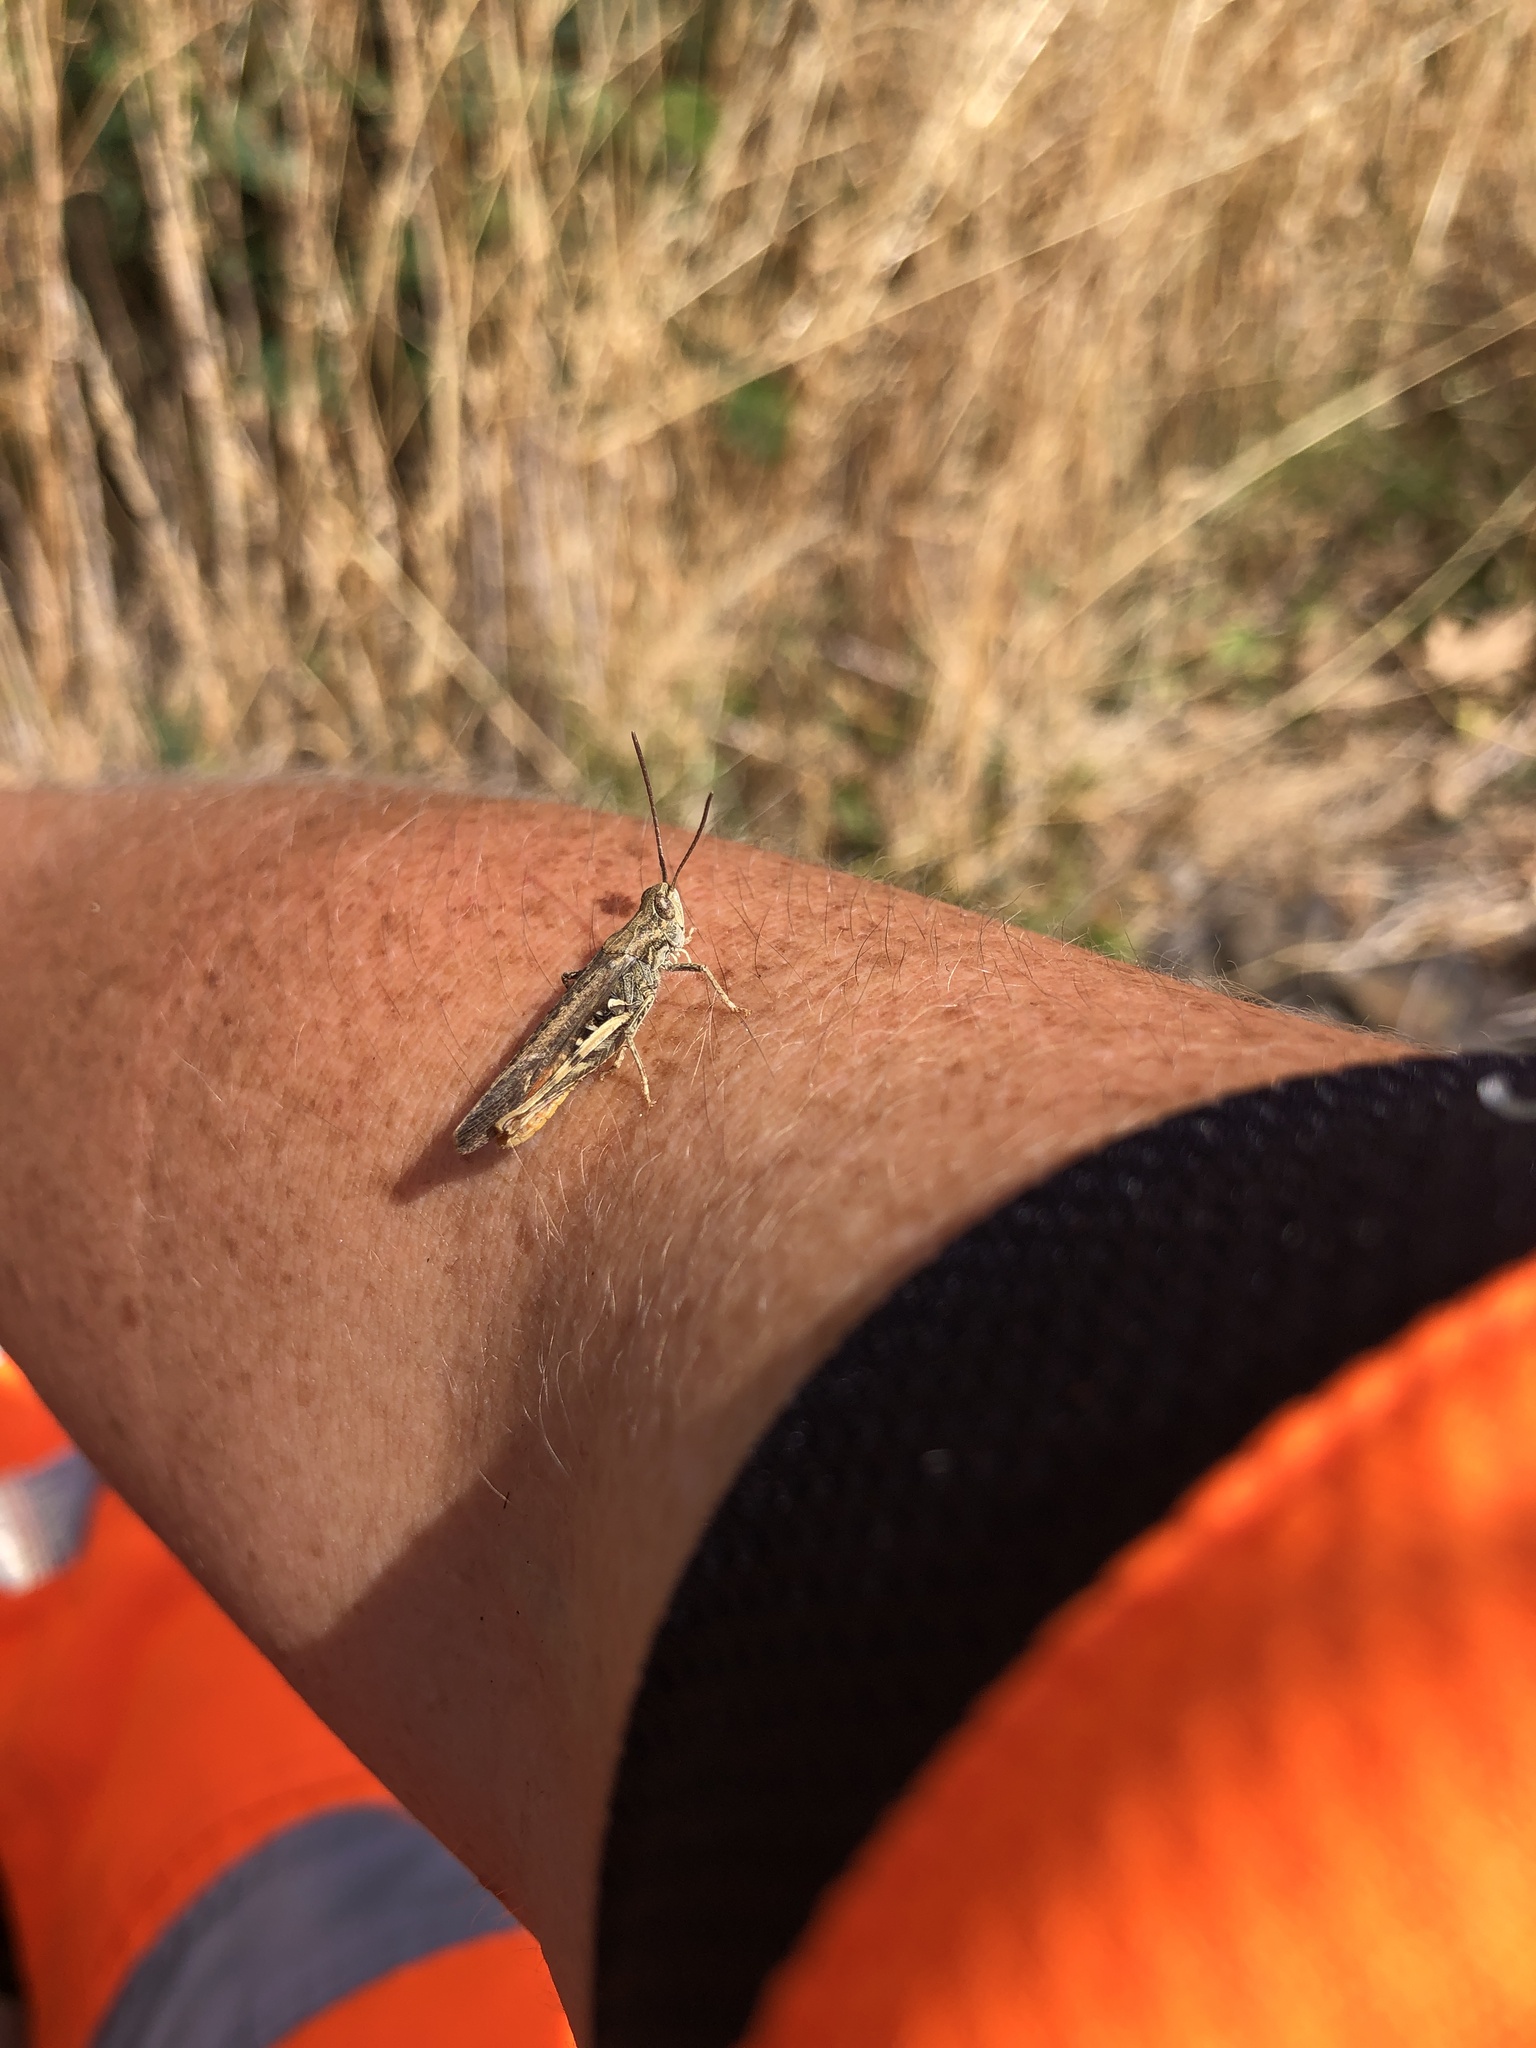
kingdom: Animalia
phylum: Arthropoda
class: Insecta
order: Orthoptera
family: Acrididae
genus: Chorthippus
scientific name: Chorthippus brunneus
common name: Field grasshopper
